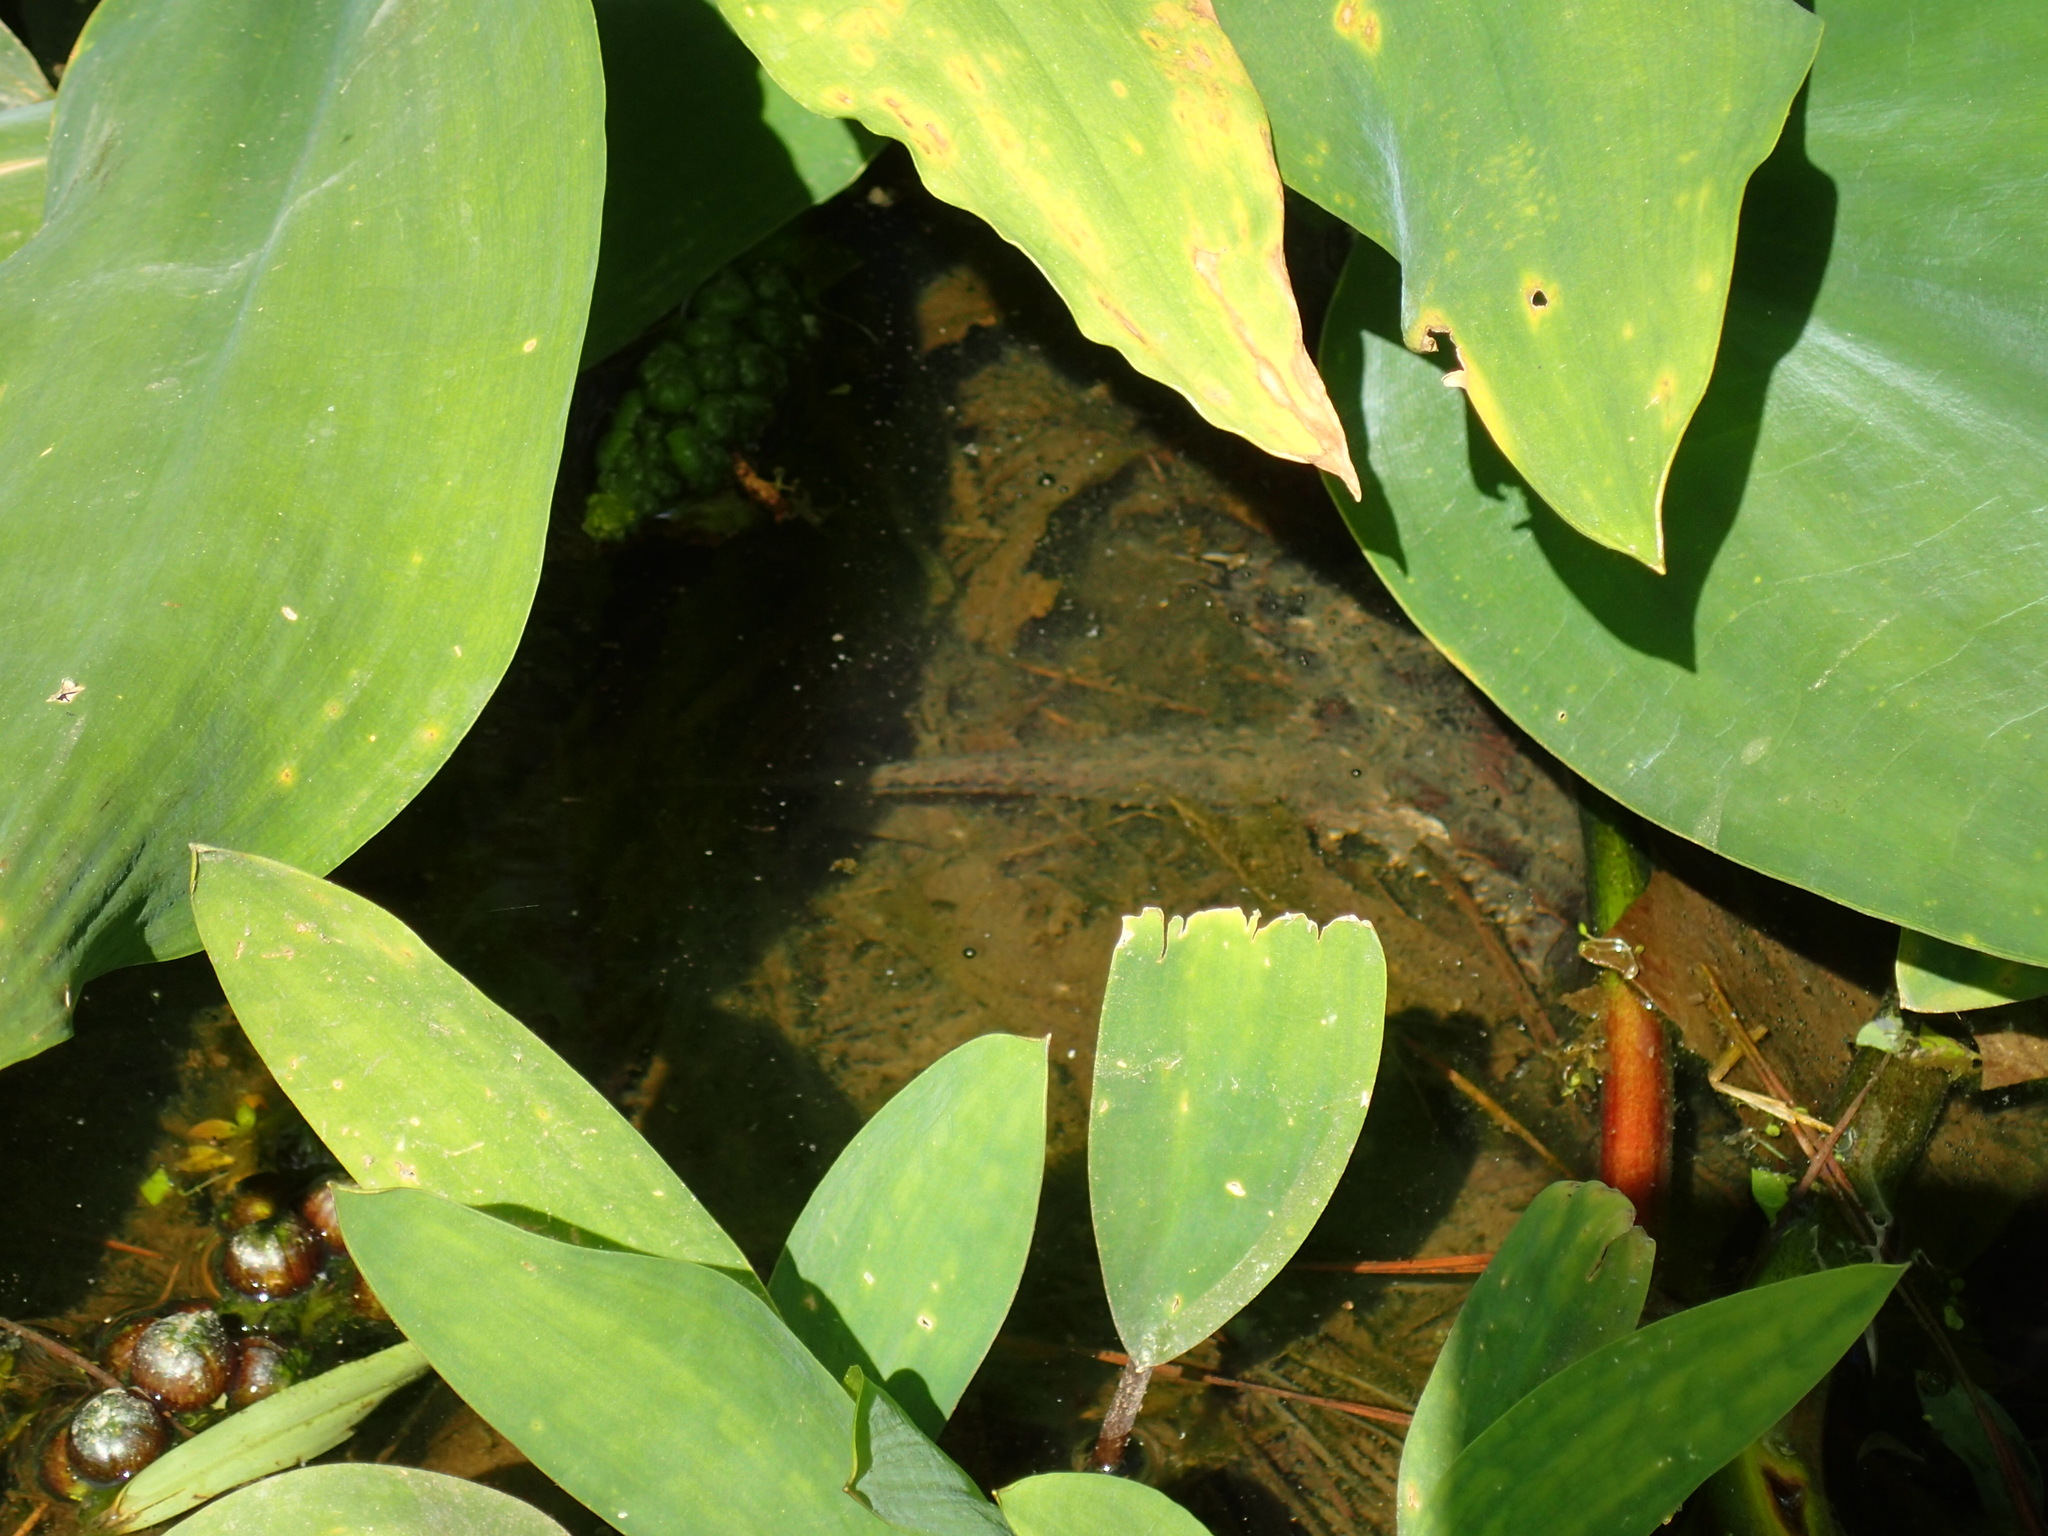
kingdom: Animalia
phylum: Chordata
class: Testudines
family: Chelydridae
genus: Chelydra
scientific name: Chelydra serpentina
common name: Common snapping turtle
